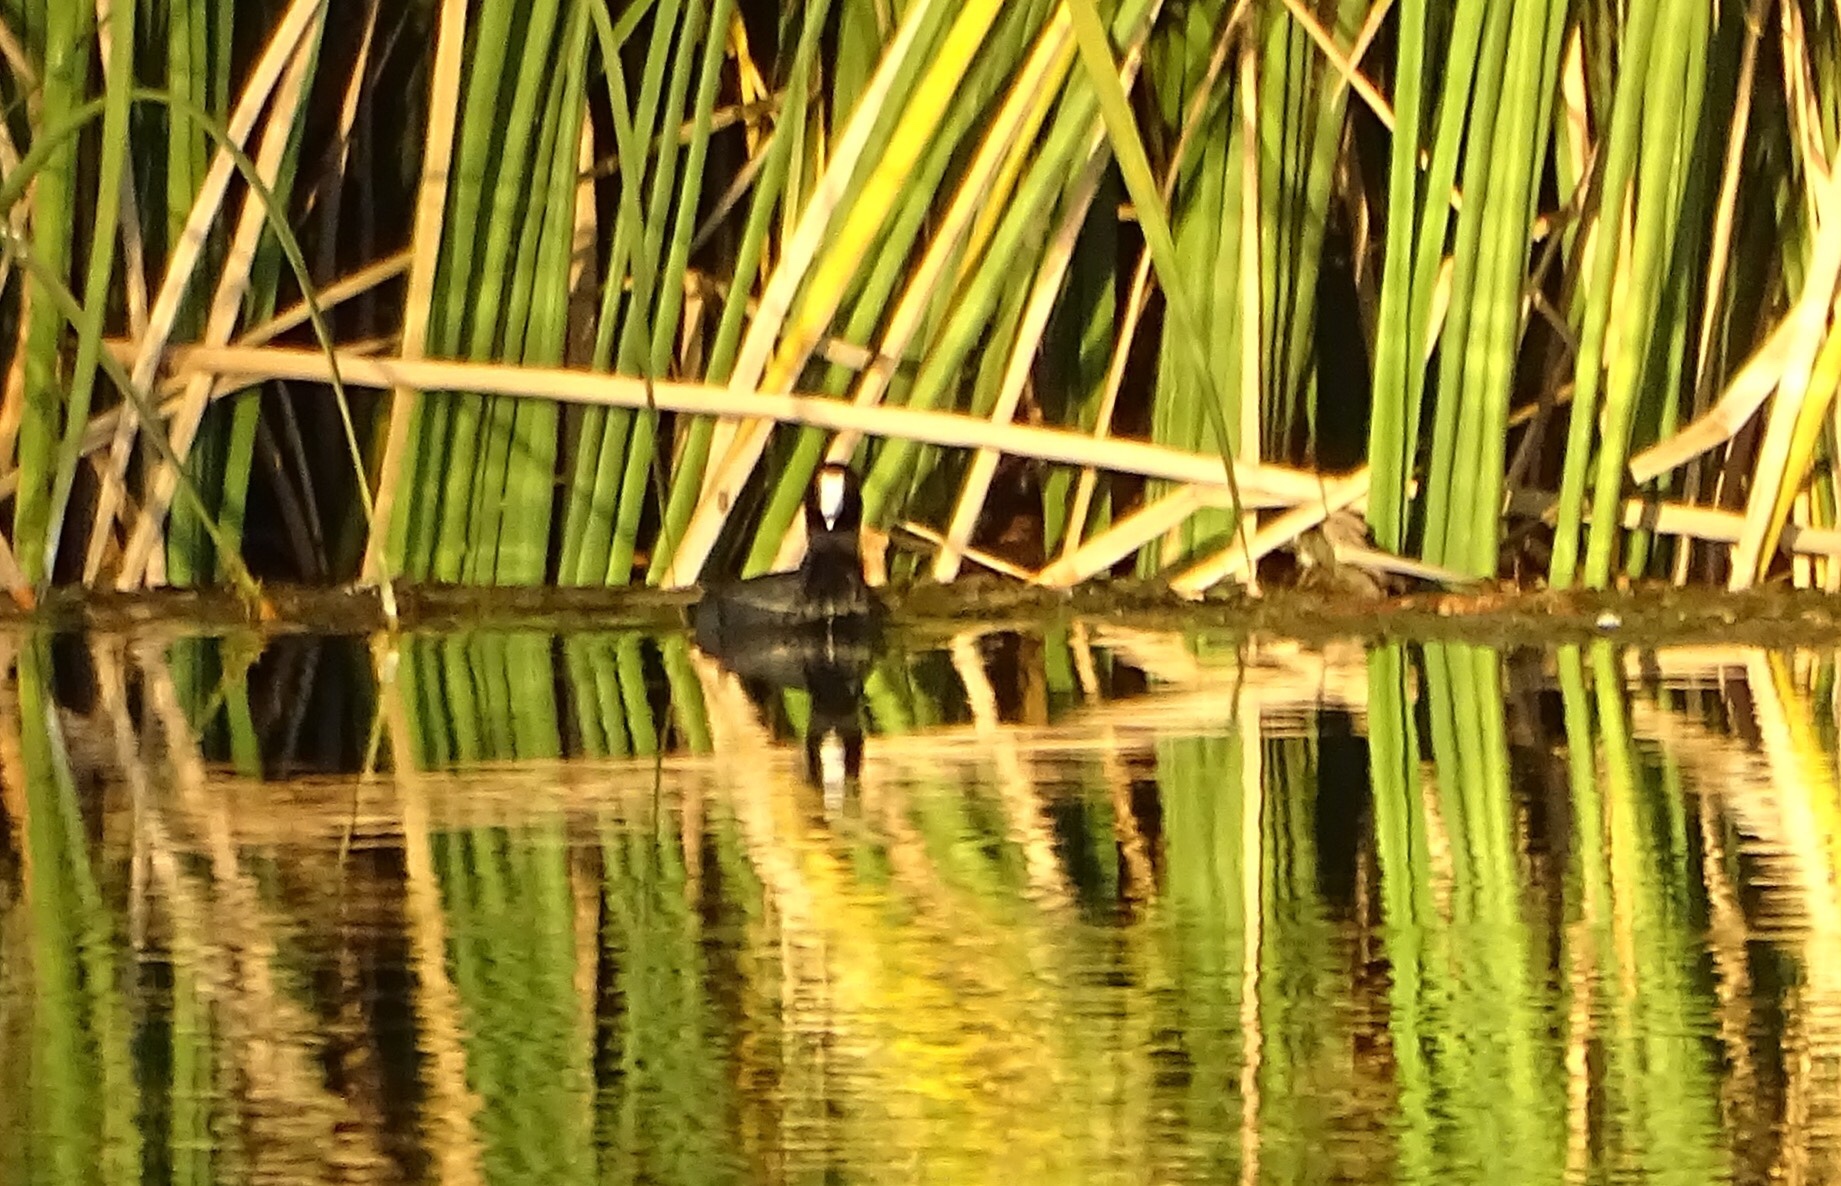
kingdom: Animalia
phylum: Chordata
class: Aves
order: Gruiformes
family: Rallidae
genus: Fulica
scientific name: Fulica americana
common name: American coot
